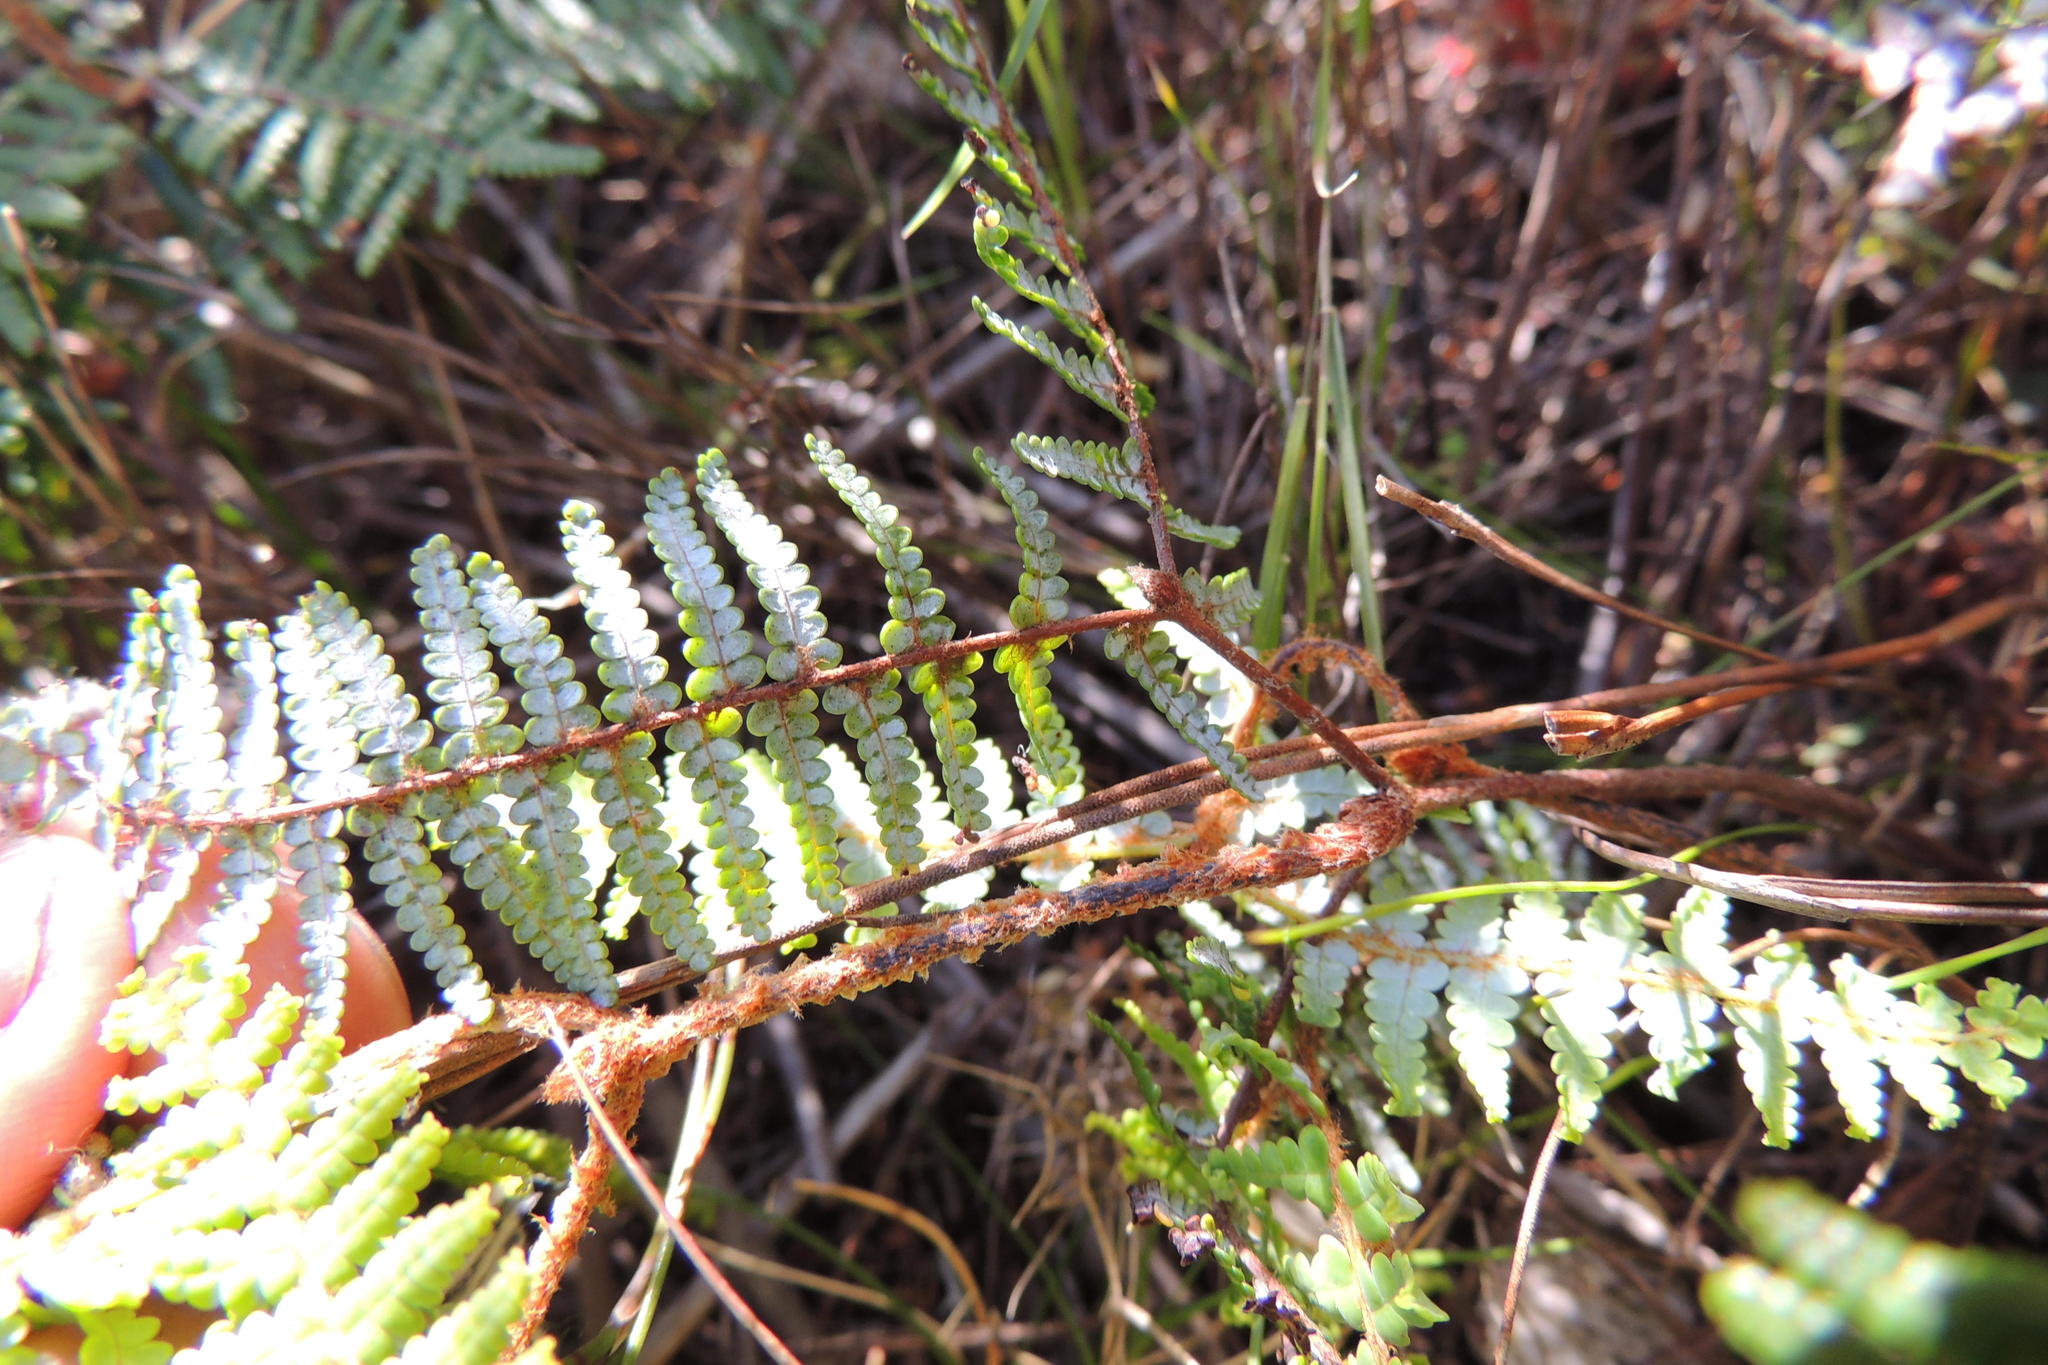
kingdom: Plantae
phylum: Tracheophyta
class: Polypodiopsida
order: Gleicheniales
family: Gleicheniaceae
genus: Gleichenia
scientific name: Gleichenia polypodioides
